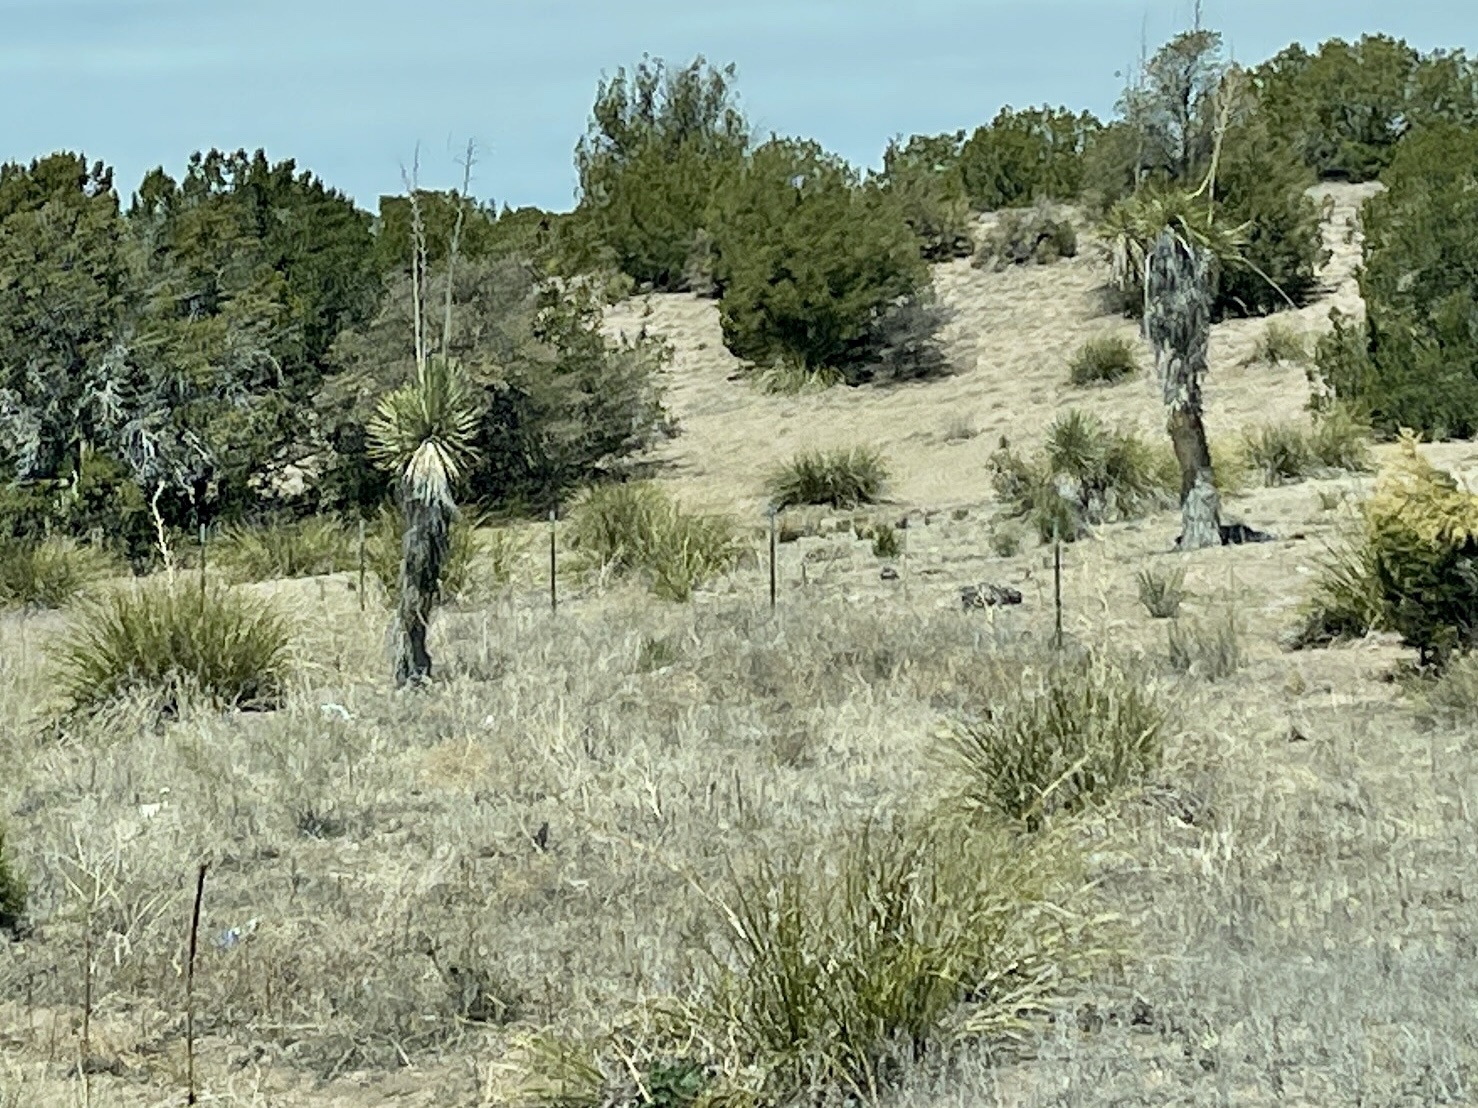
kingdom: Plantae
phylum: Tracheophyta
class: Liliopsida
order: Asparagales
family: Asparagaceae
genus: Yucca
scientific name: Yucca elata
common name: Palmella
